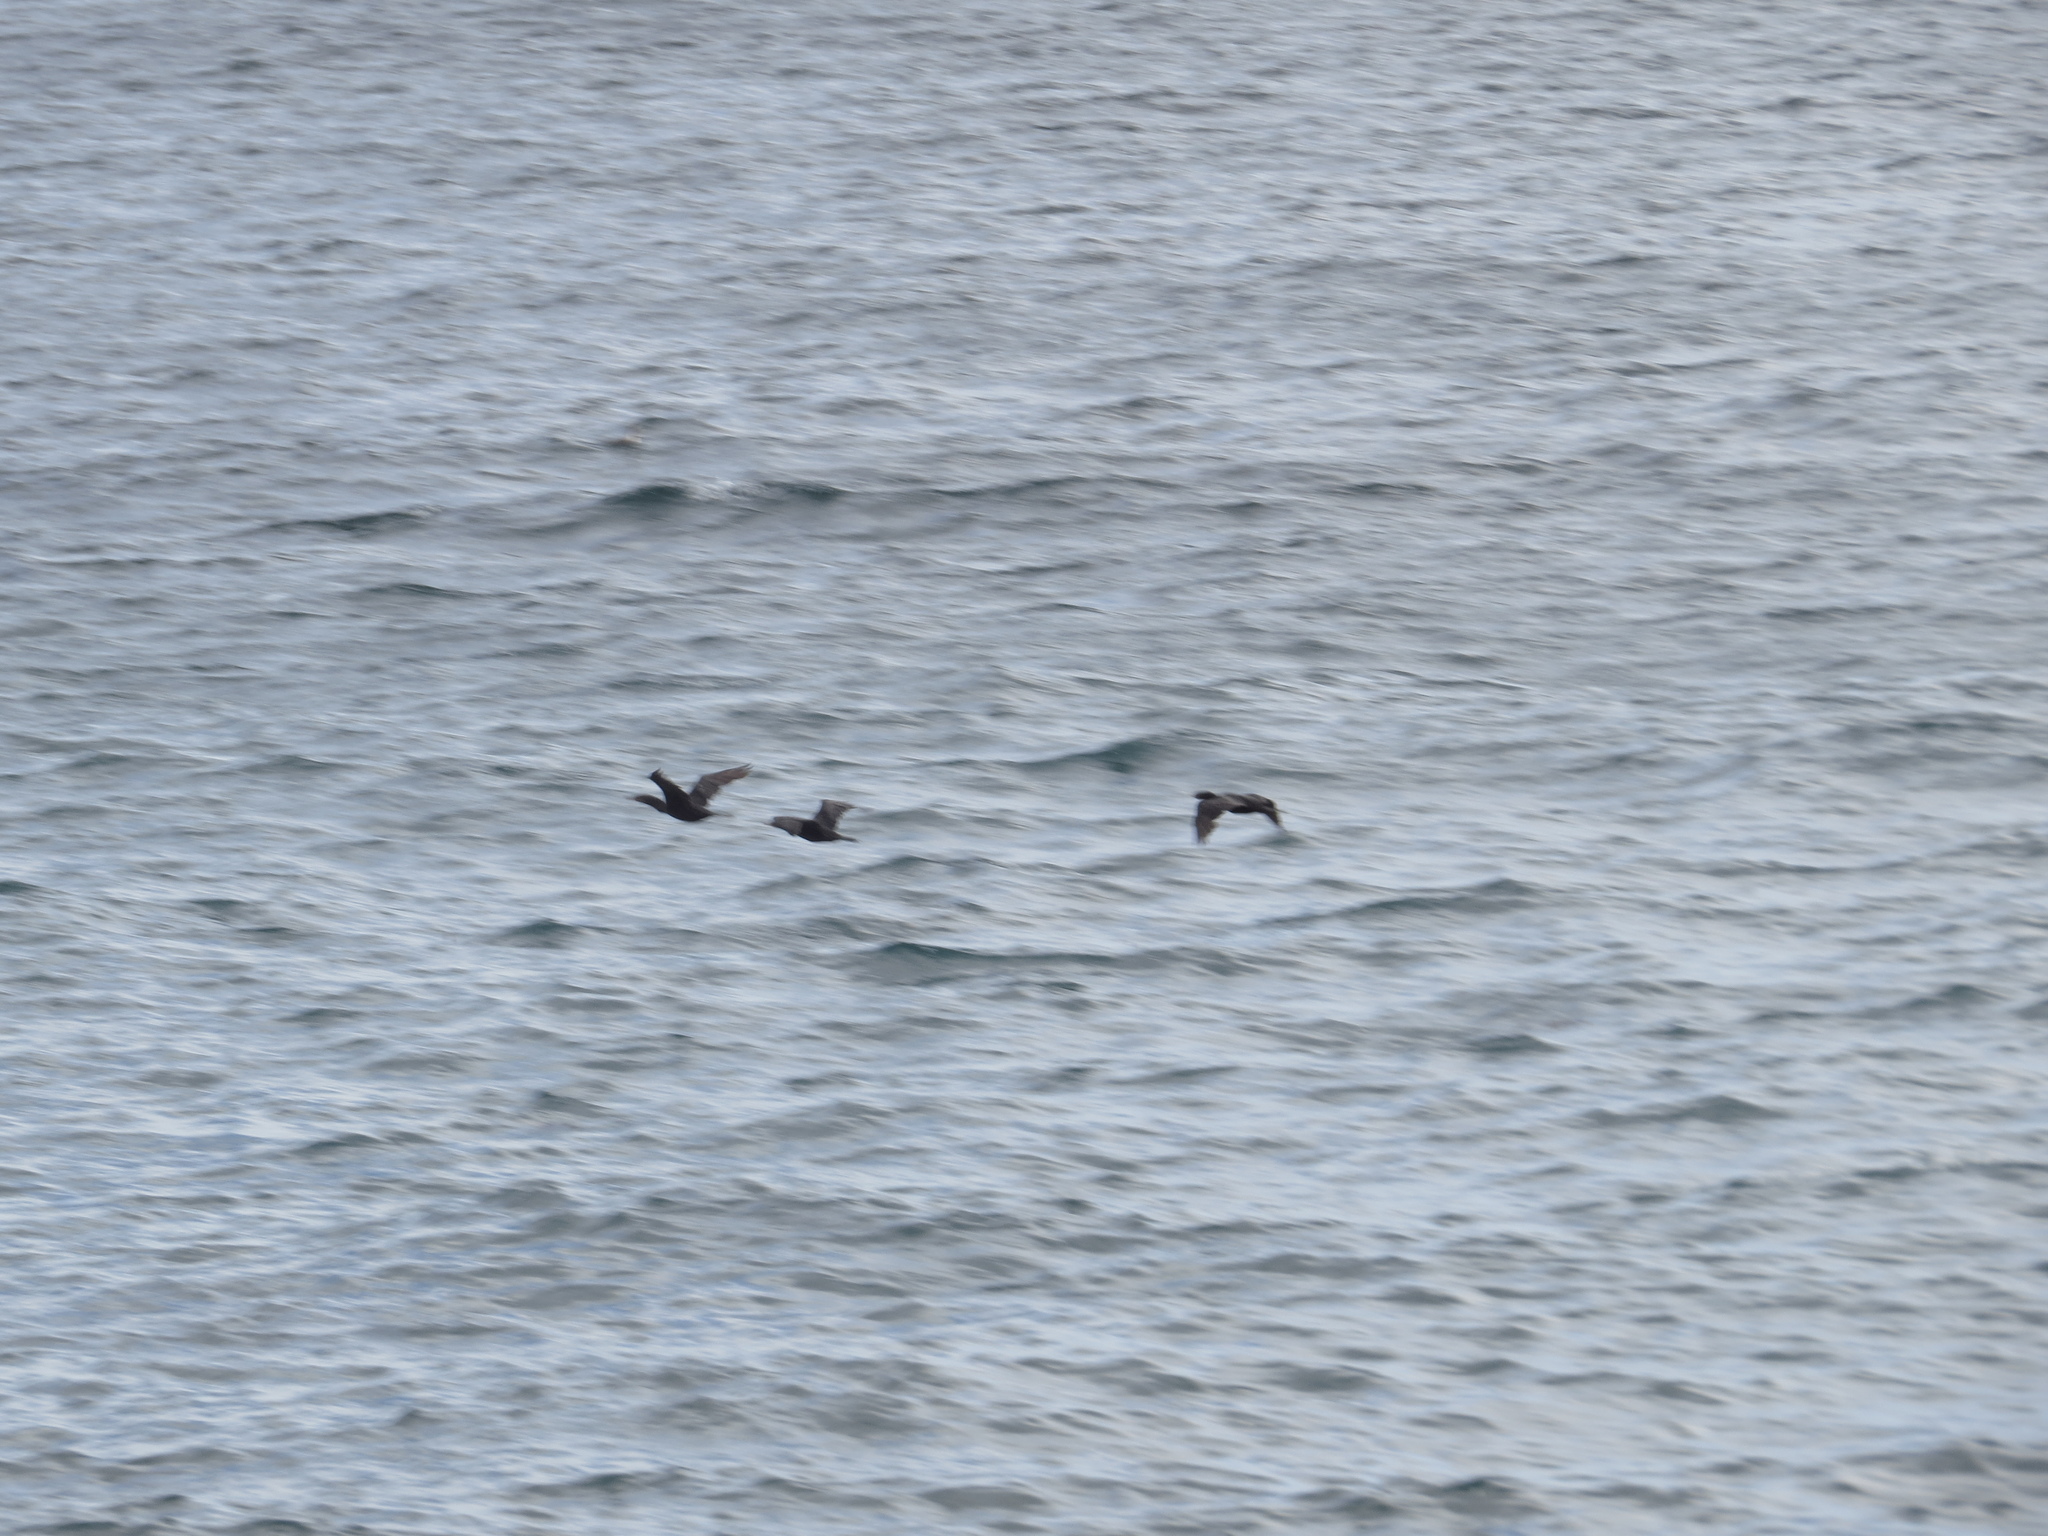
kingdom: Animalia
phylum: Chordata
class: Aves
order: Suliformes
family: Phalacrocoracidae
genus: Phalacrocorax
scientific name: Phalacrocorax brasilianus
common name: Neotropic cormorant
